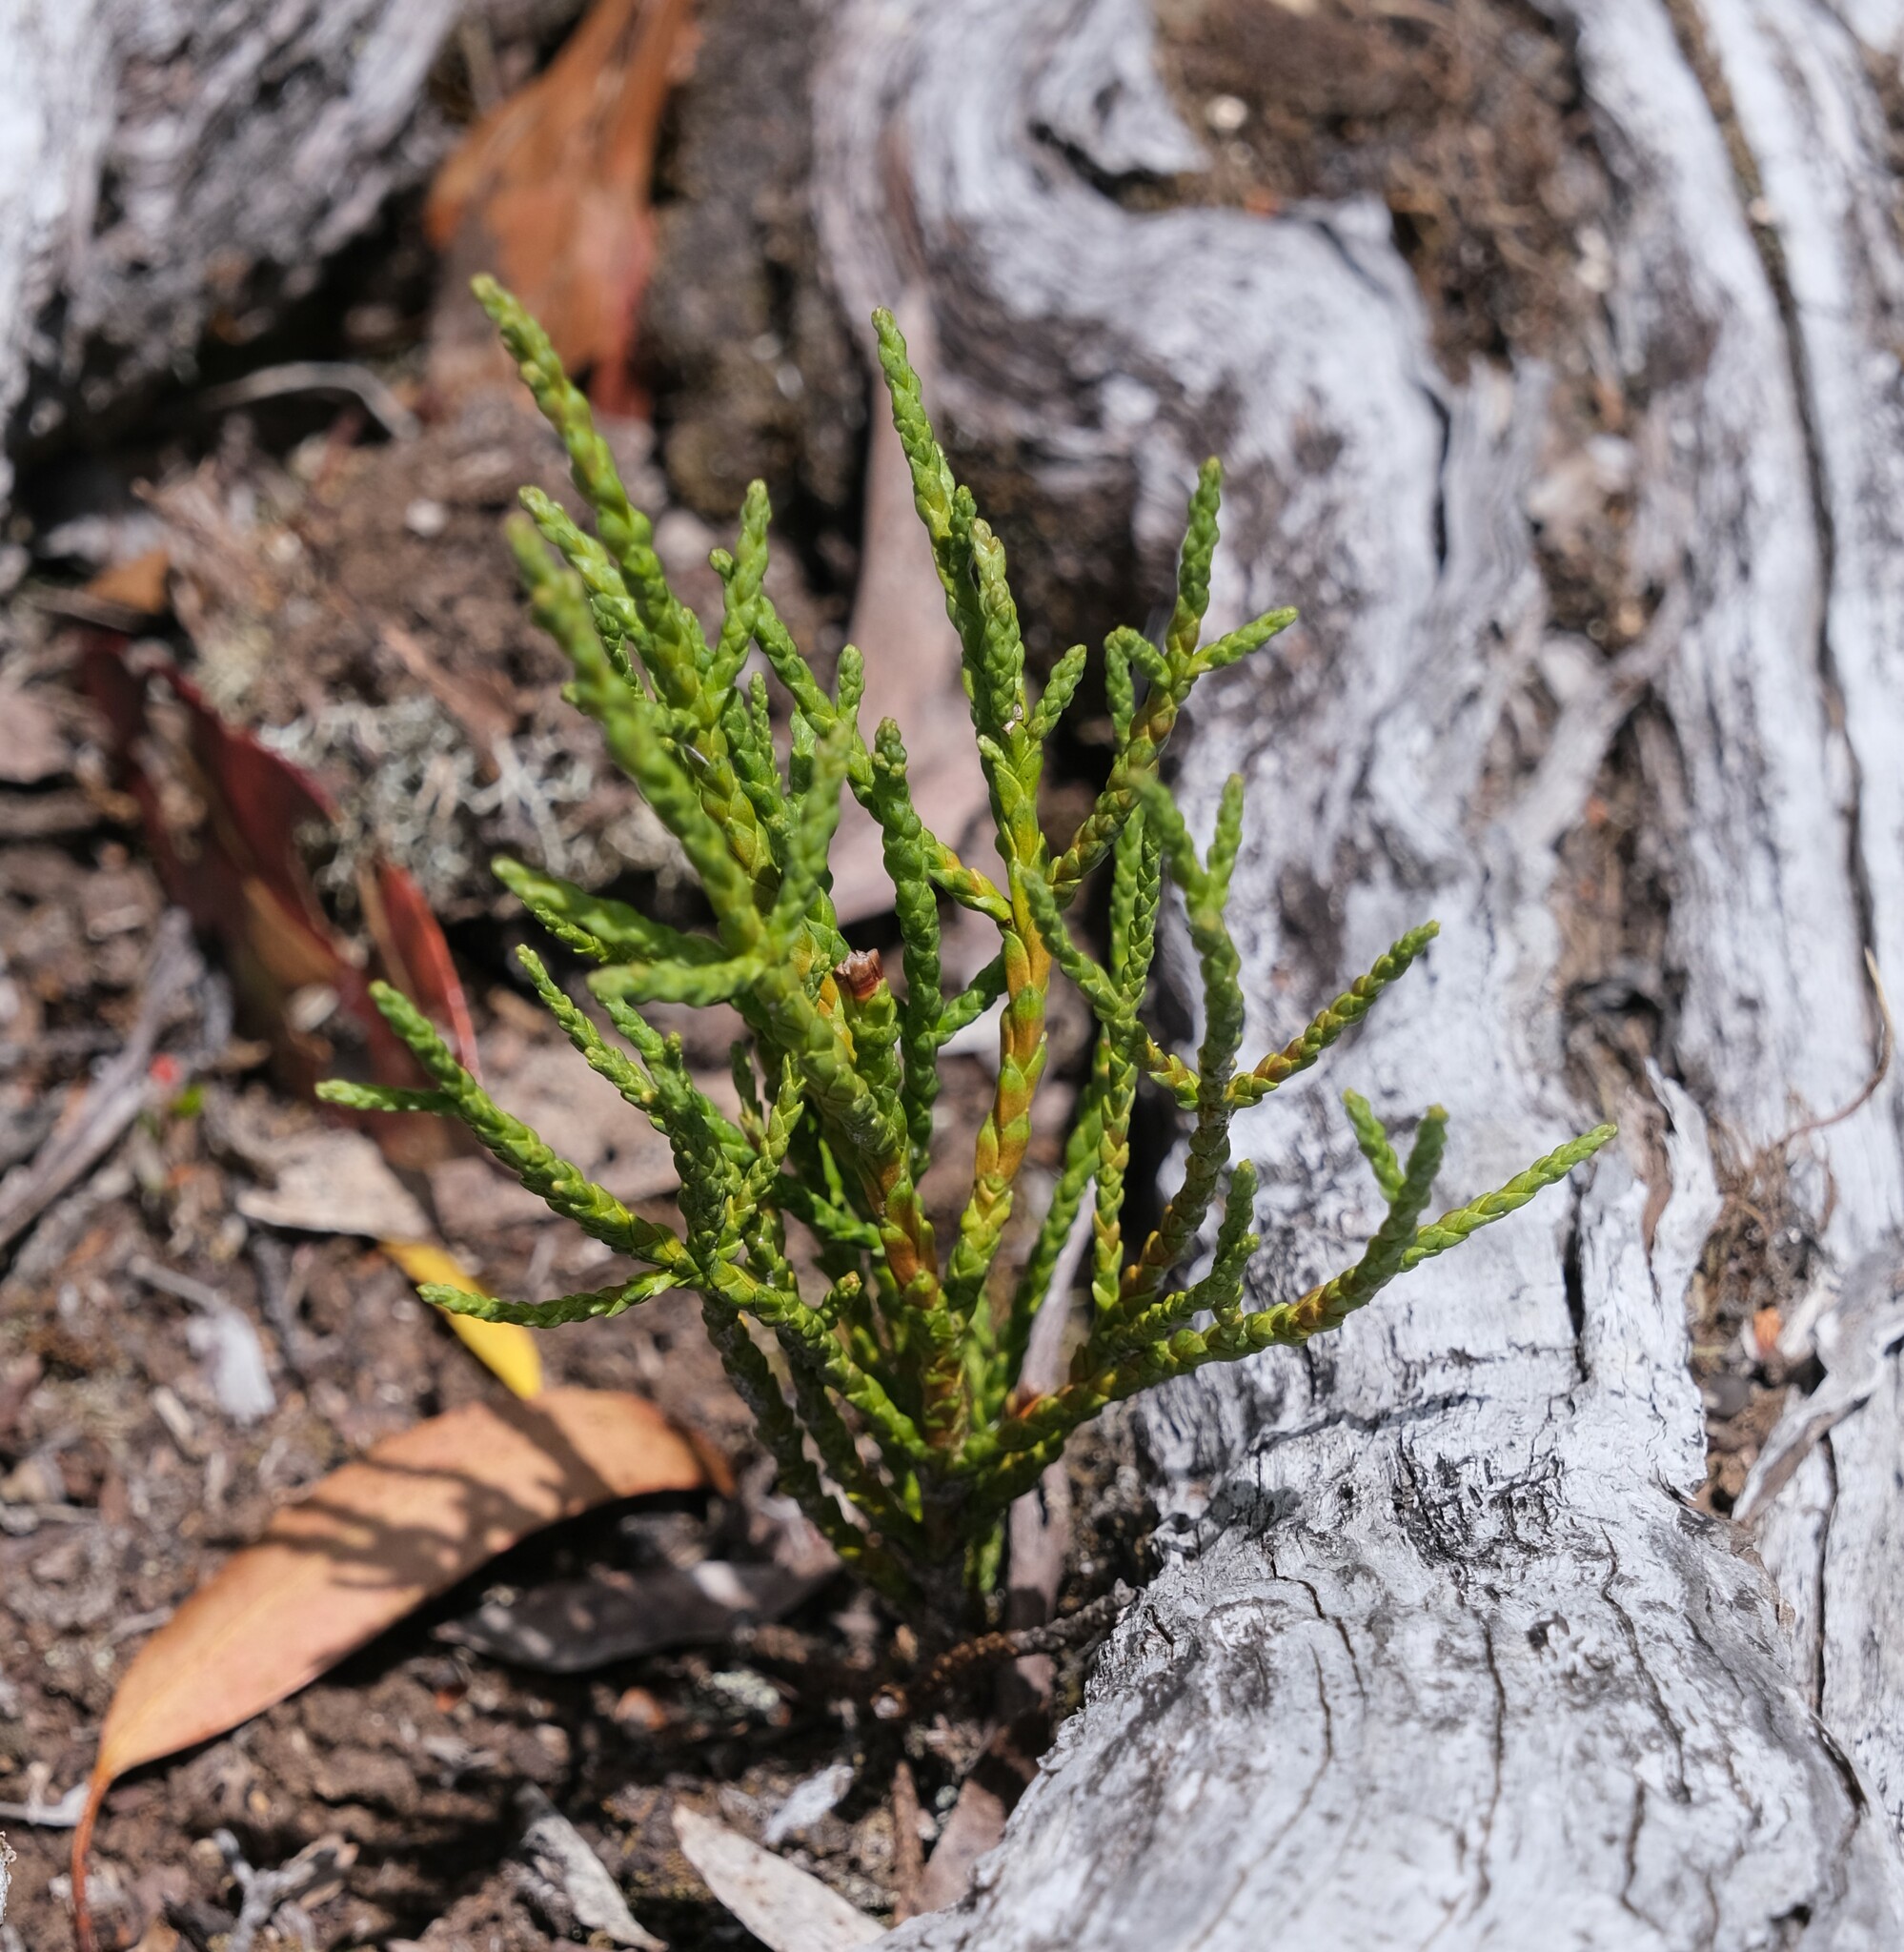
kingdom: Plantae
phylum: Tracheophyta
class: Pinopsida
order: Pinales
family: Cupressaceae
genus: Athrotaxis
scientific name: Athrotaxis cupressoides
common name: Tasmanian pencil pine
